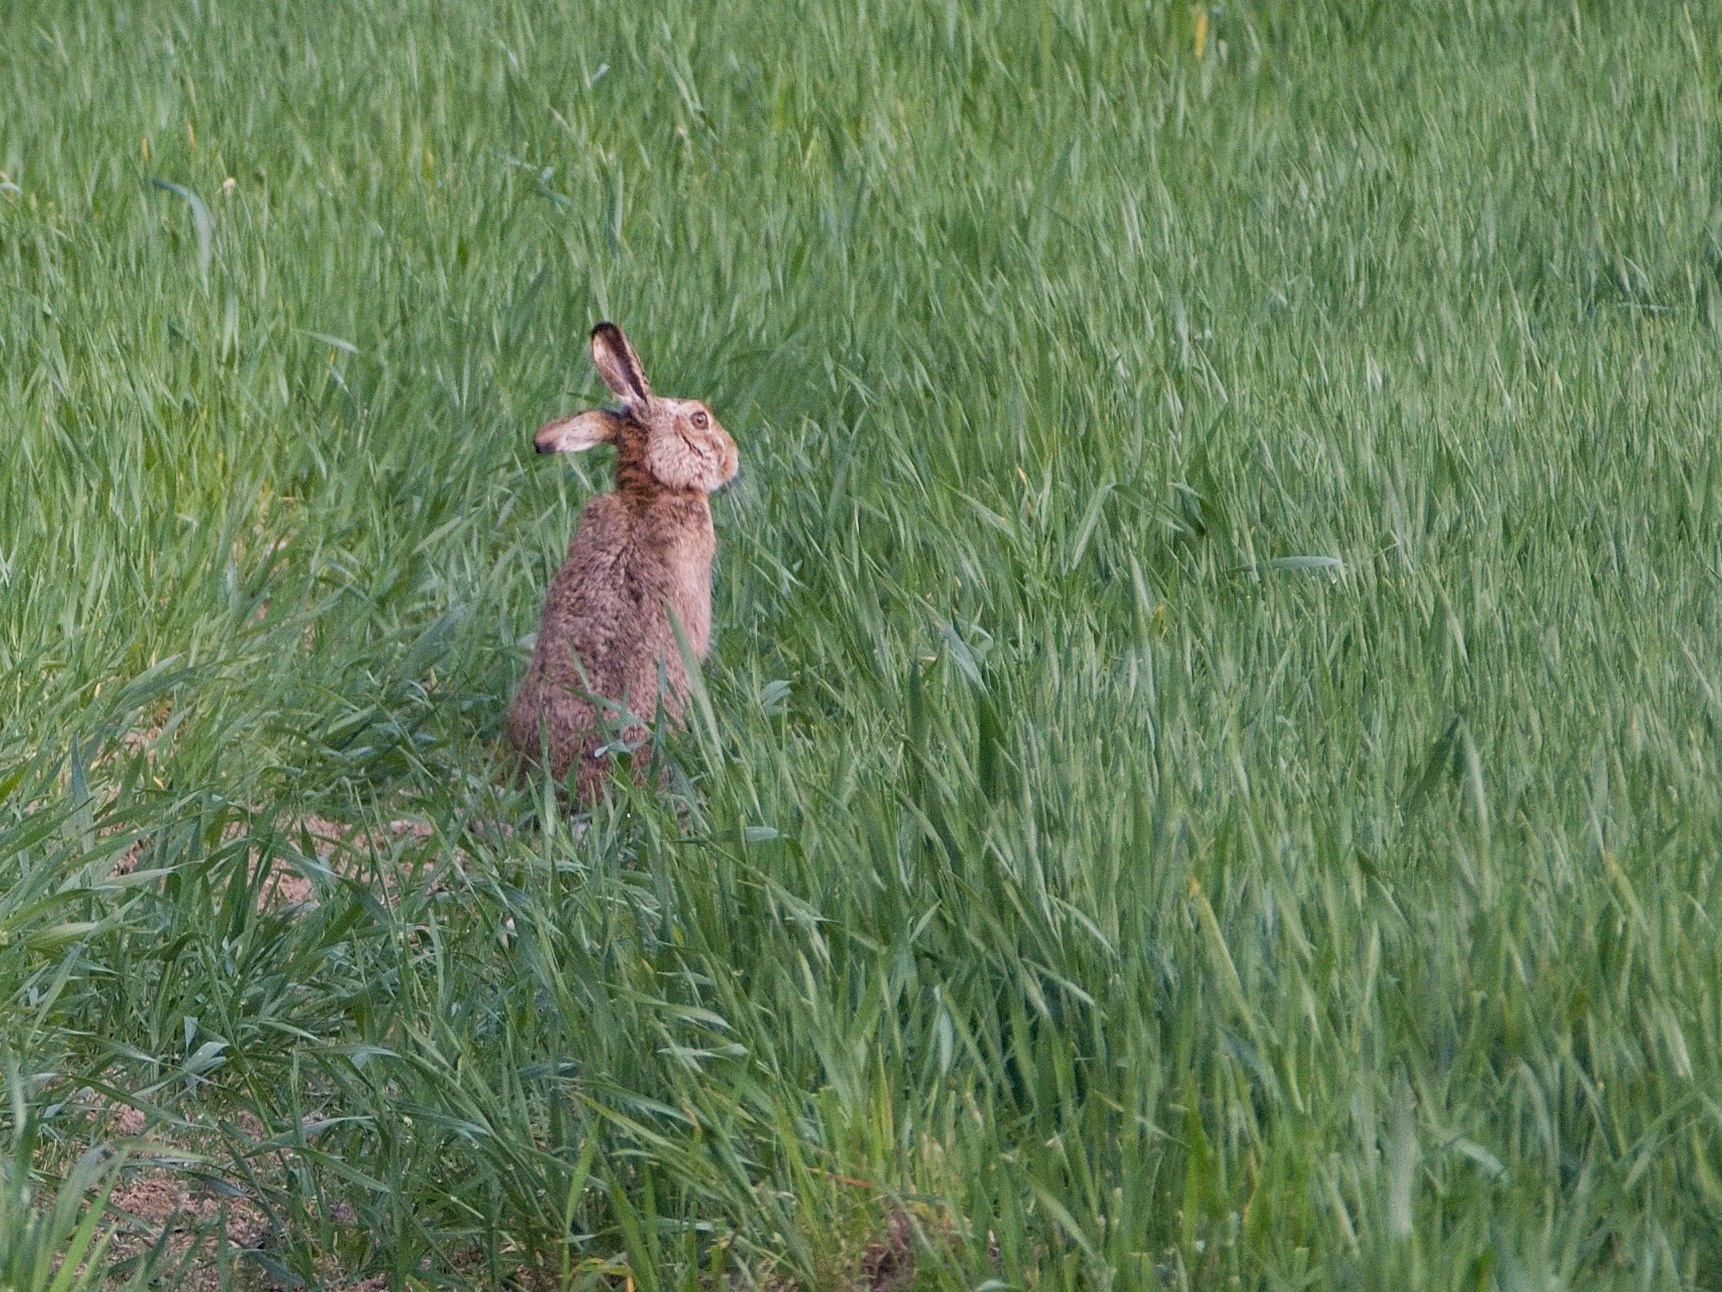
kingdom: Animalia
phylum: Chordata
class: Mammalia
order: Lagomorpha
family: Leporidae
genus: Lepus
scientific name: Lepus europaeus
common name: European hare
